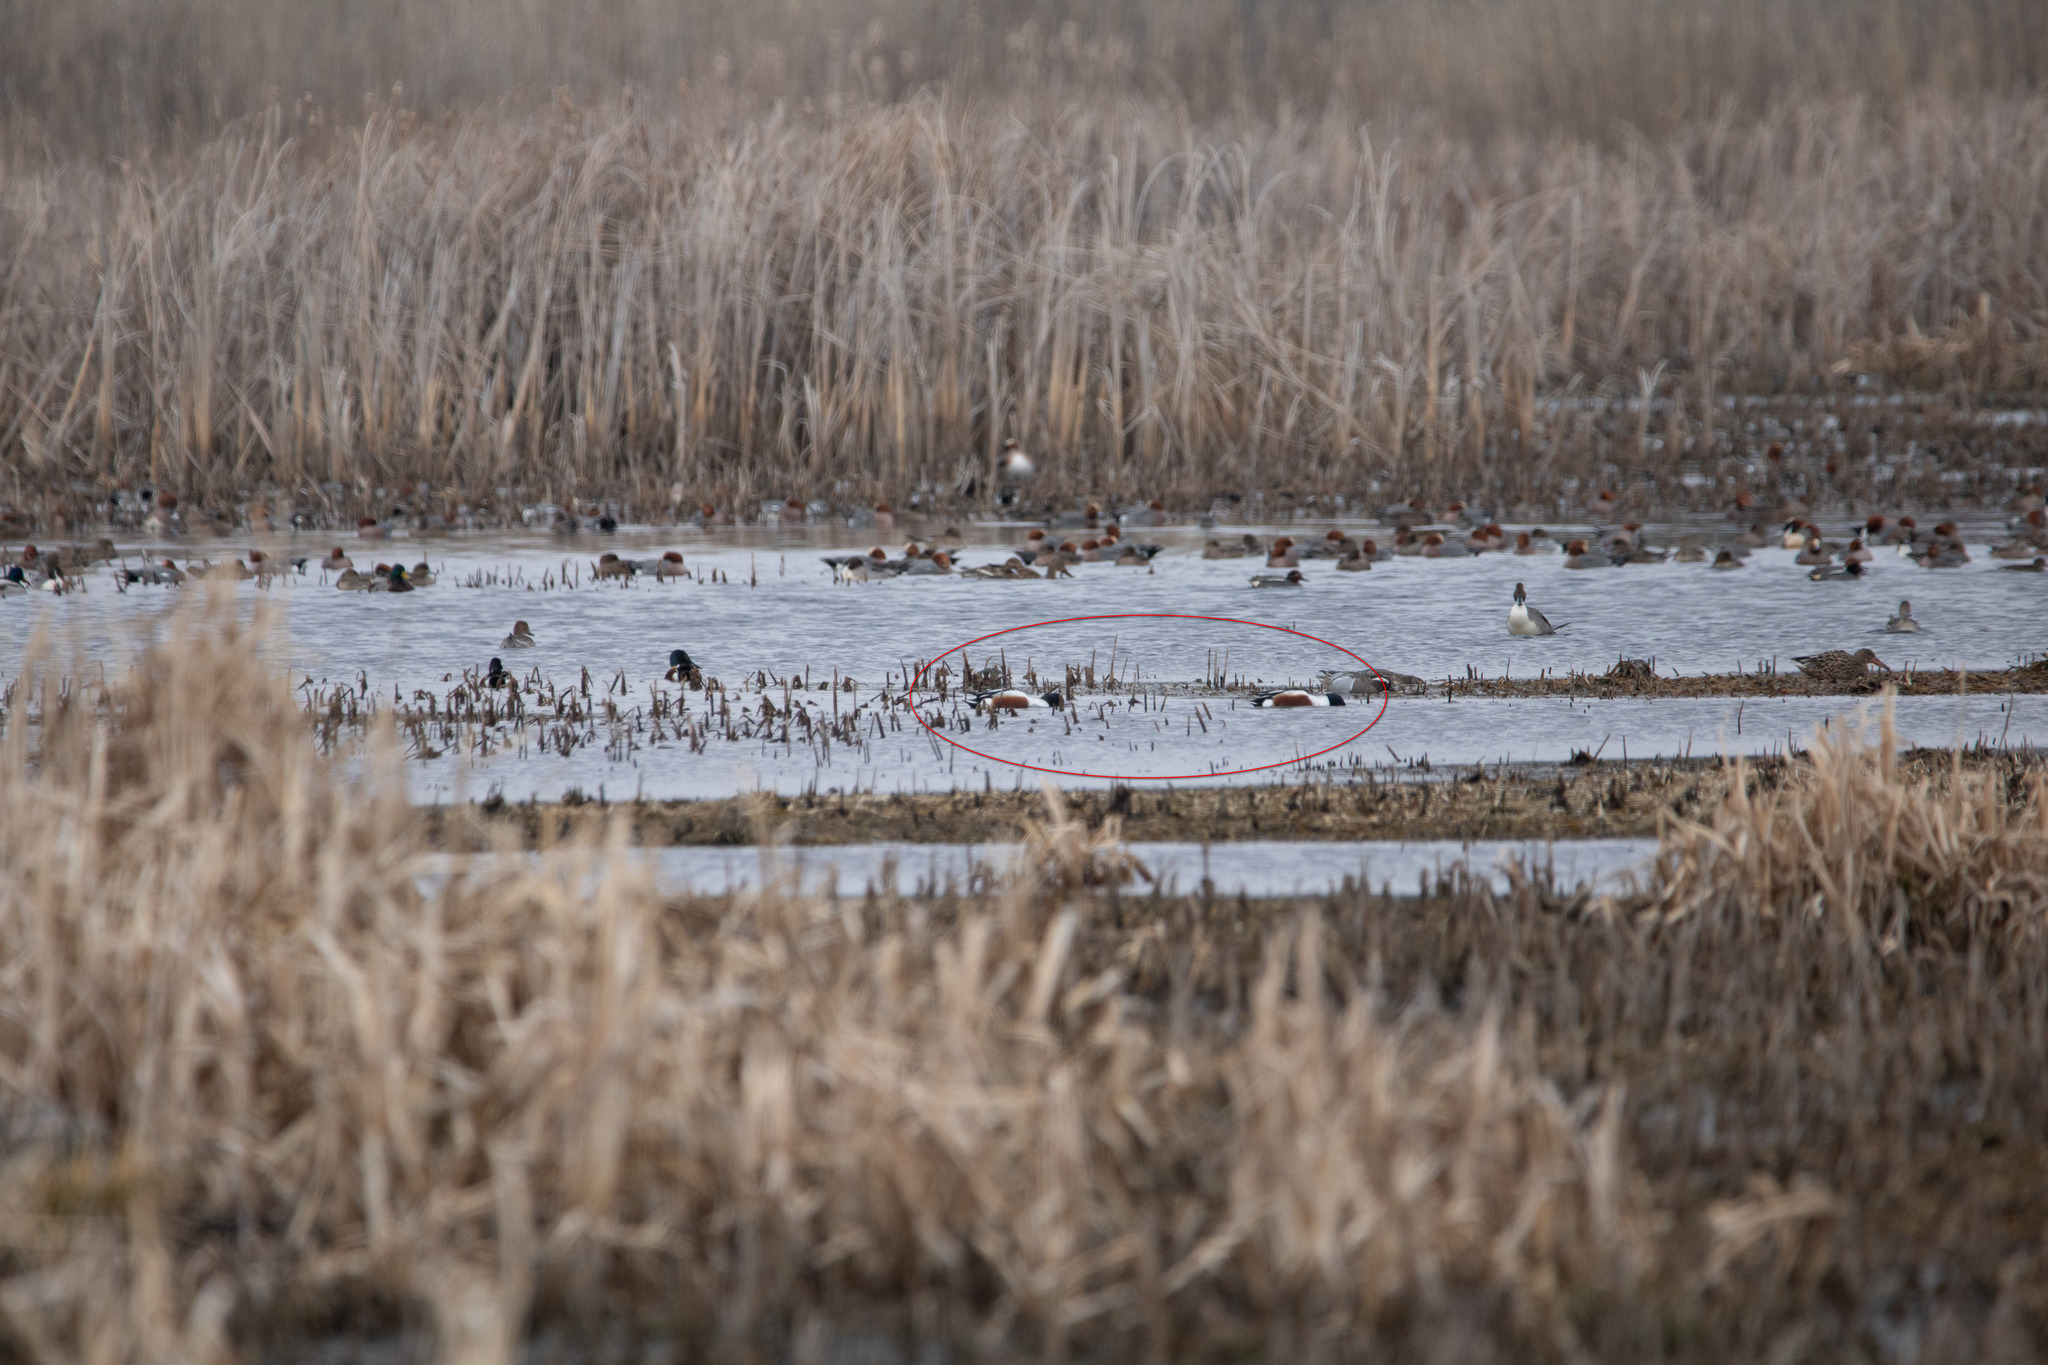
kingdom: Animalia
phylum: Chordata
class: Aves
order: Anseriformes
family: Anatidae
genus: Spatula
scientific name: Spatula clypeata
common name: Northern shoveler
